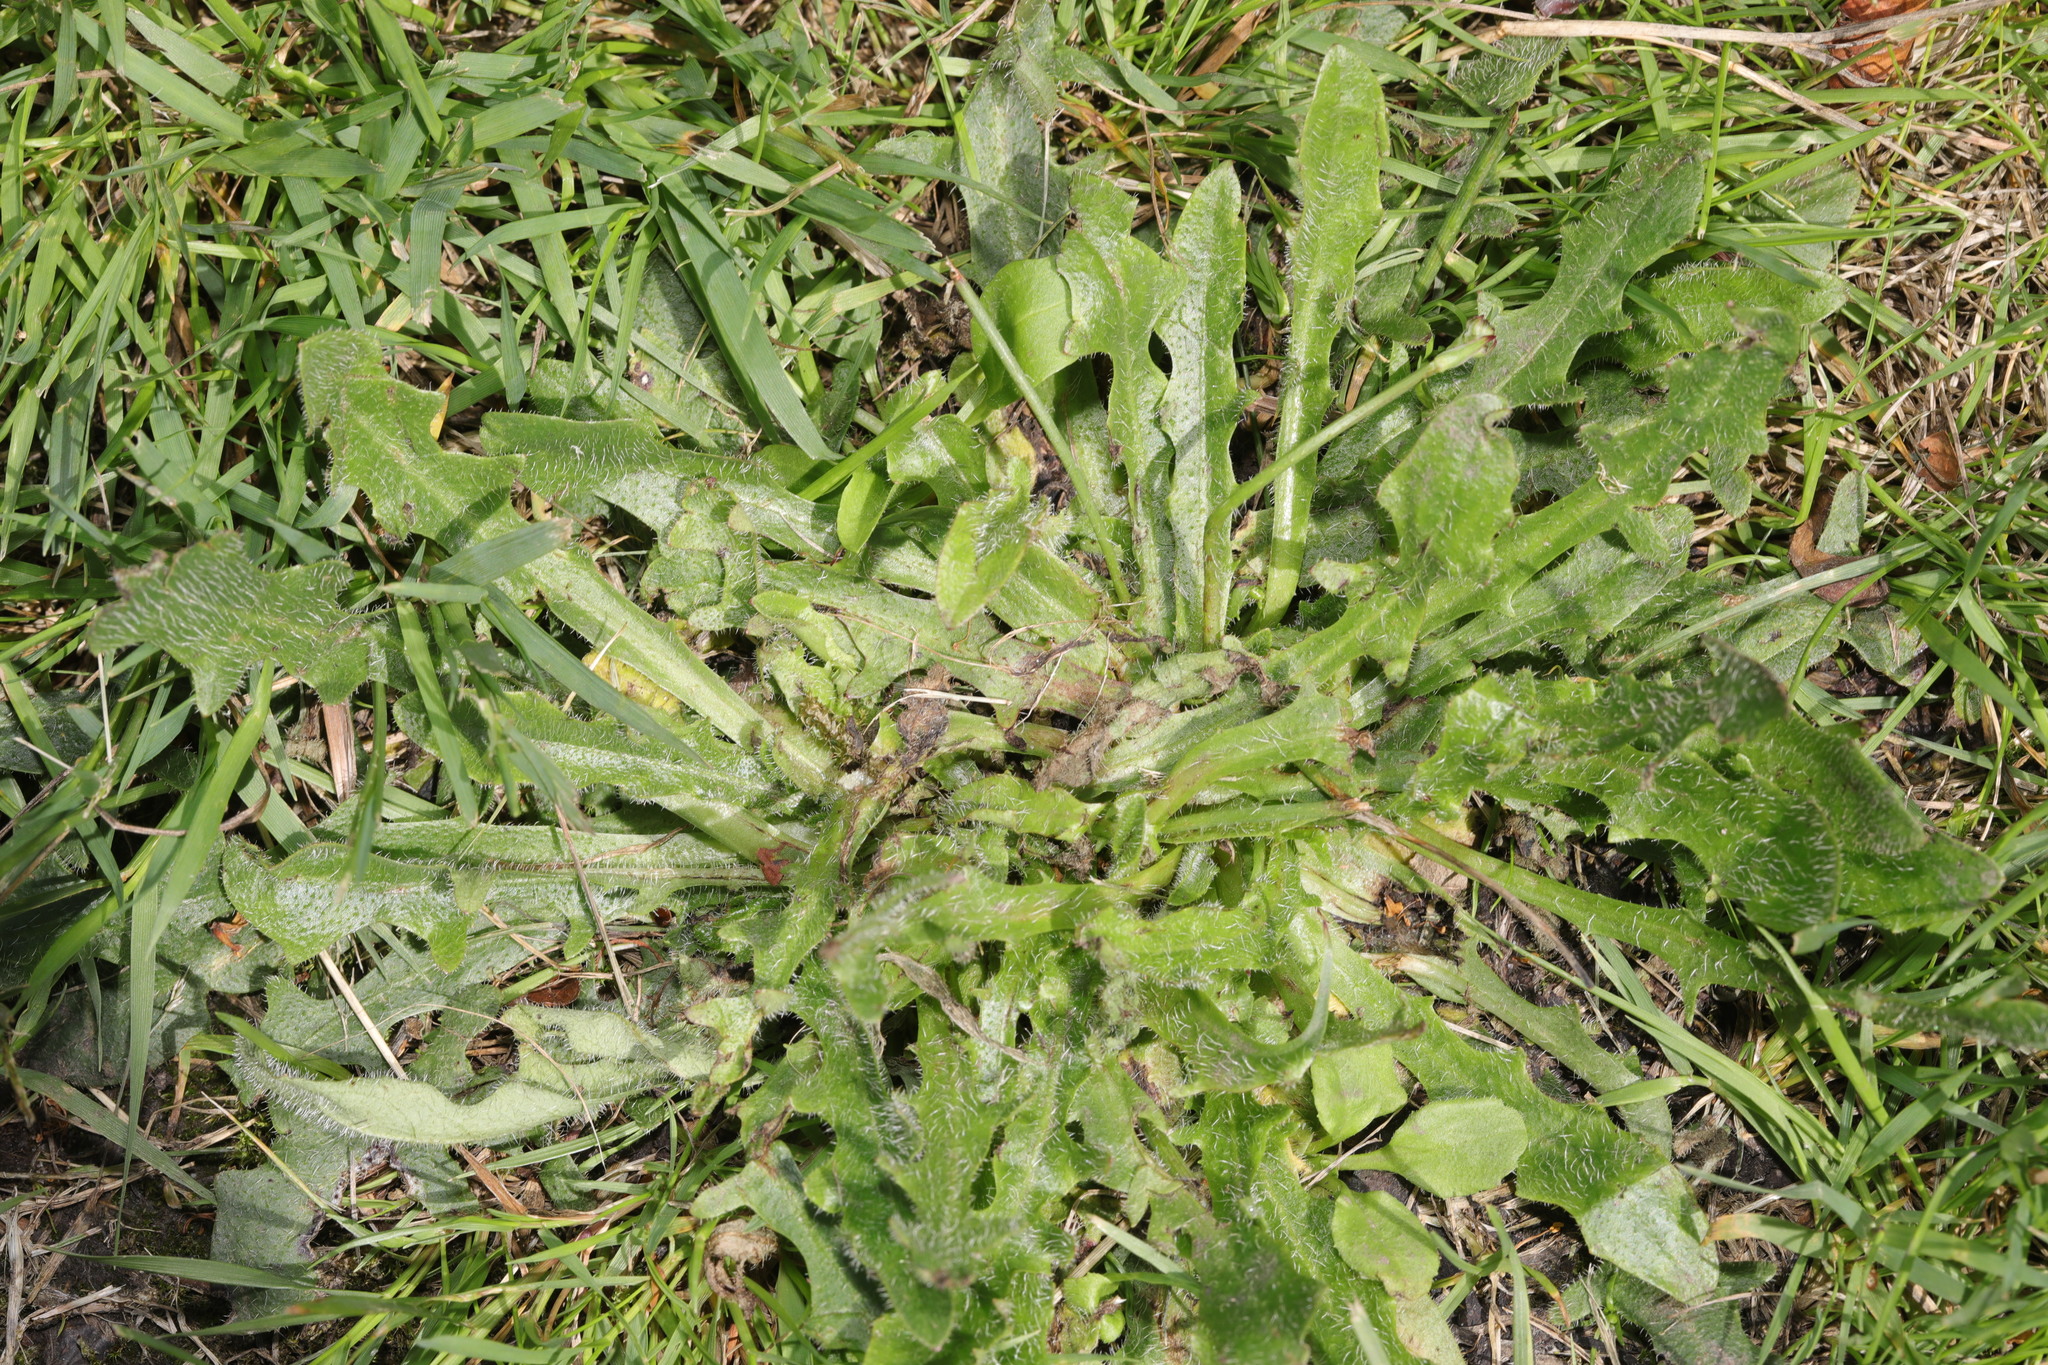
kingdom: Plantae
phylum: Tracheophyta
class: Magnoliopsida
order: Asterales
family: Asteraceae
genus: Hypochaeris
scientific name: Hypochaeris radicata
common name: Flatweed
